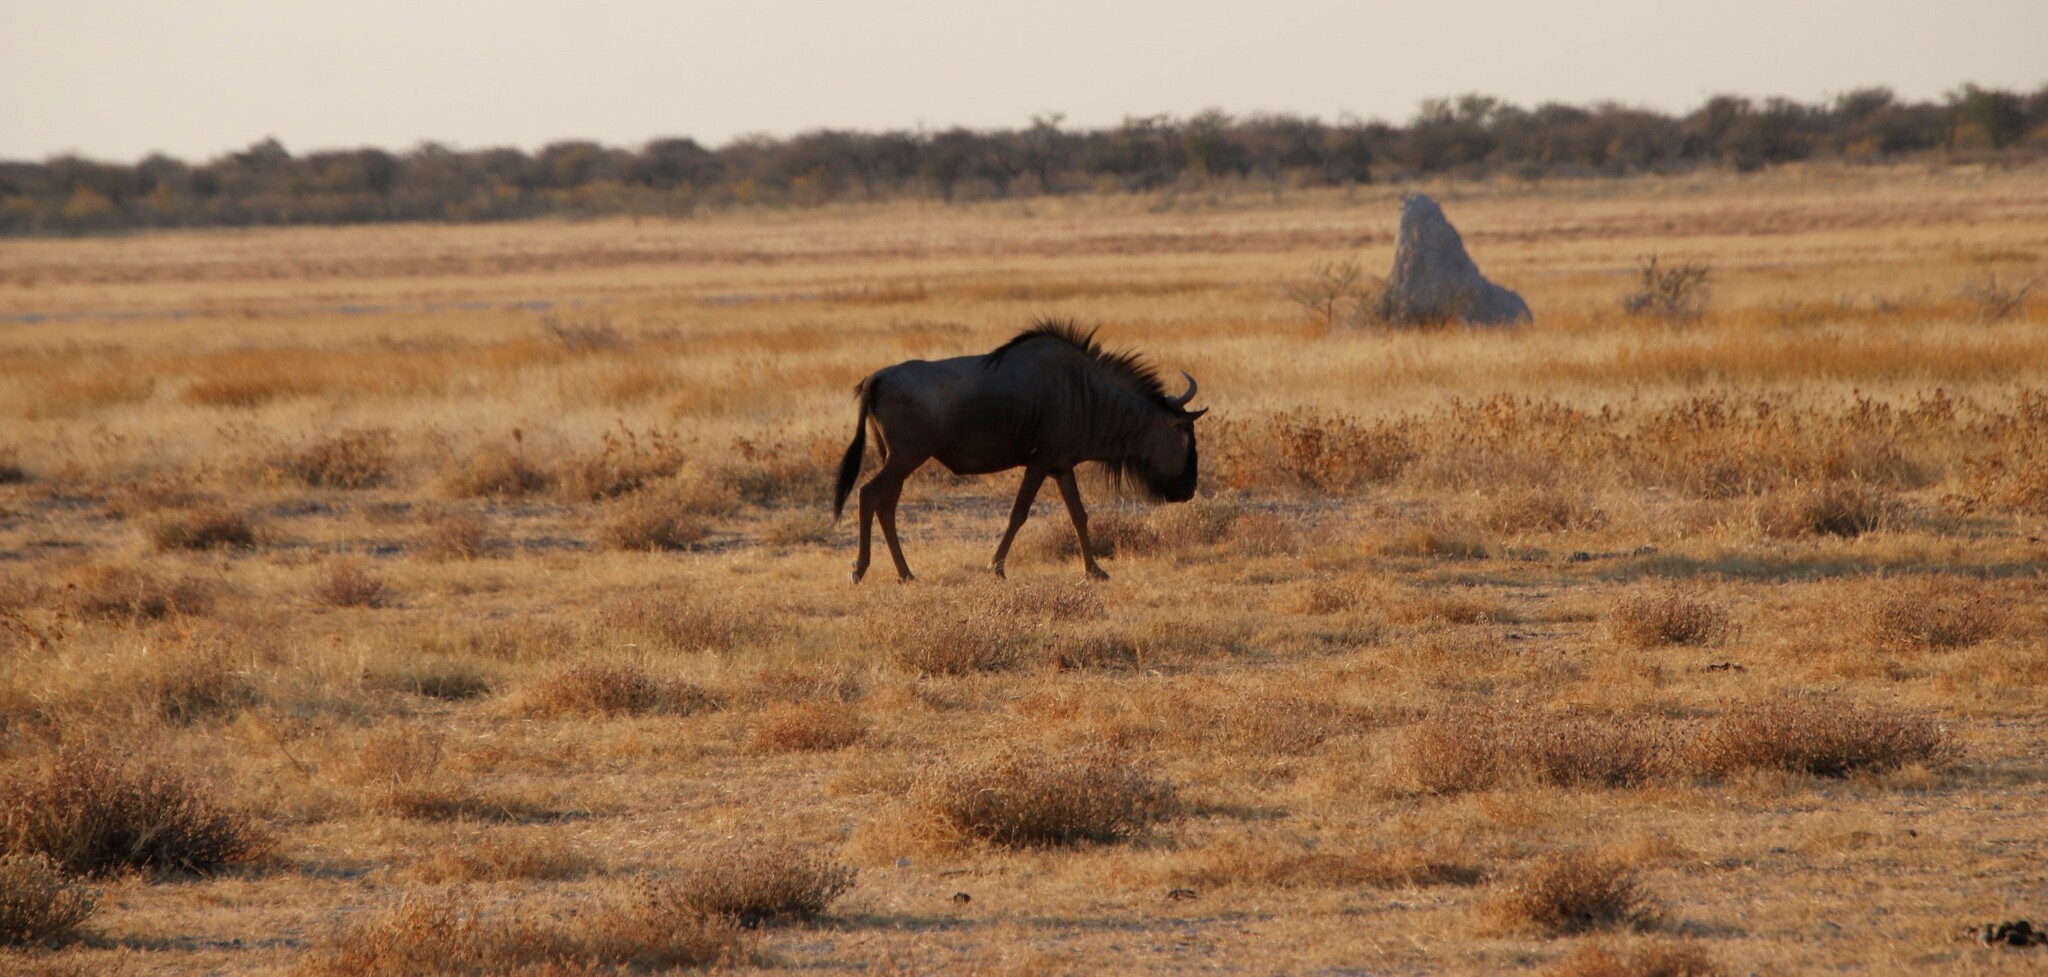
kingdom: Animalia
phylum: Chordata
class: Mammalia
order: Artiodactyla
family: Bovidae
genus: Connochaetes
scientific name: Connochaetes taurinus
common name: Blue wildebeest
